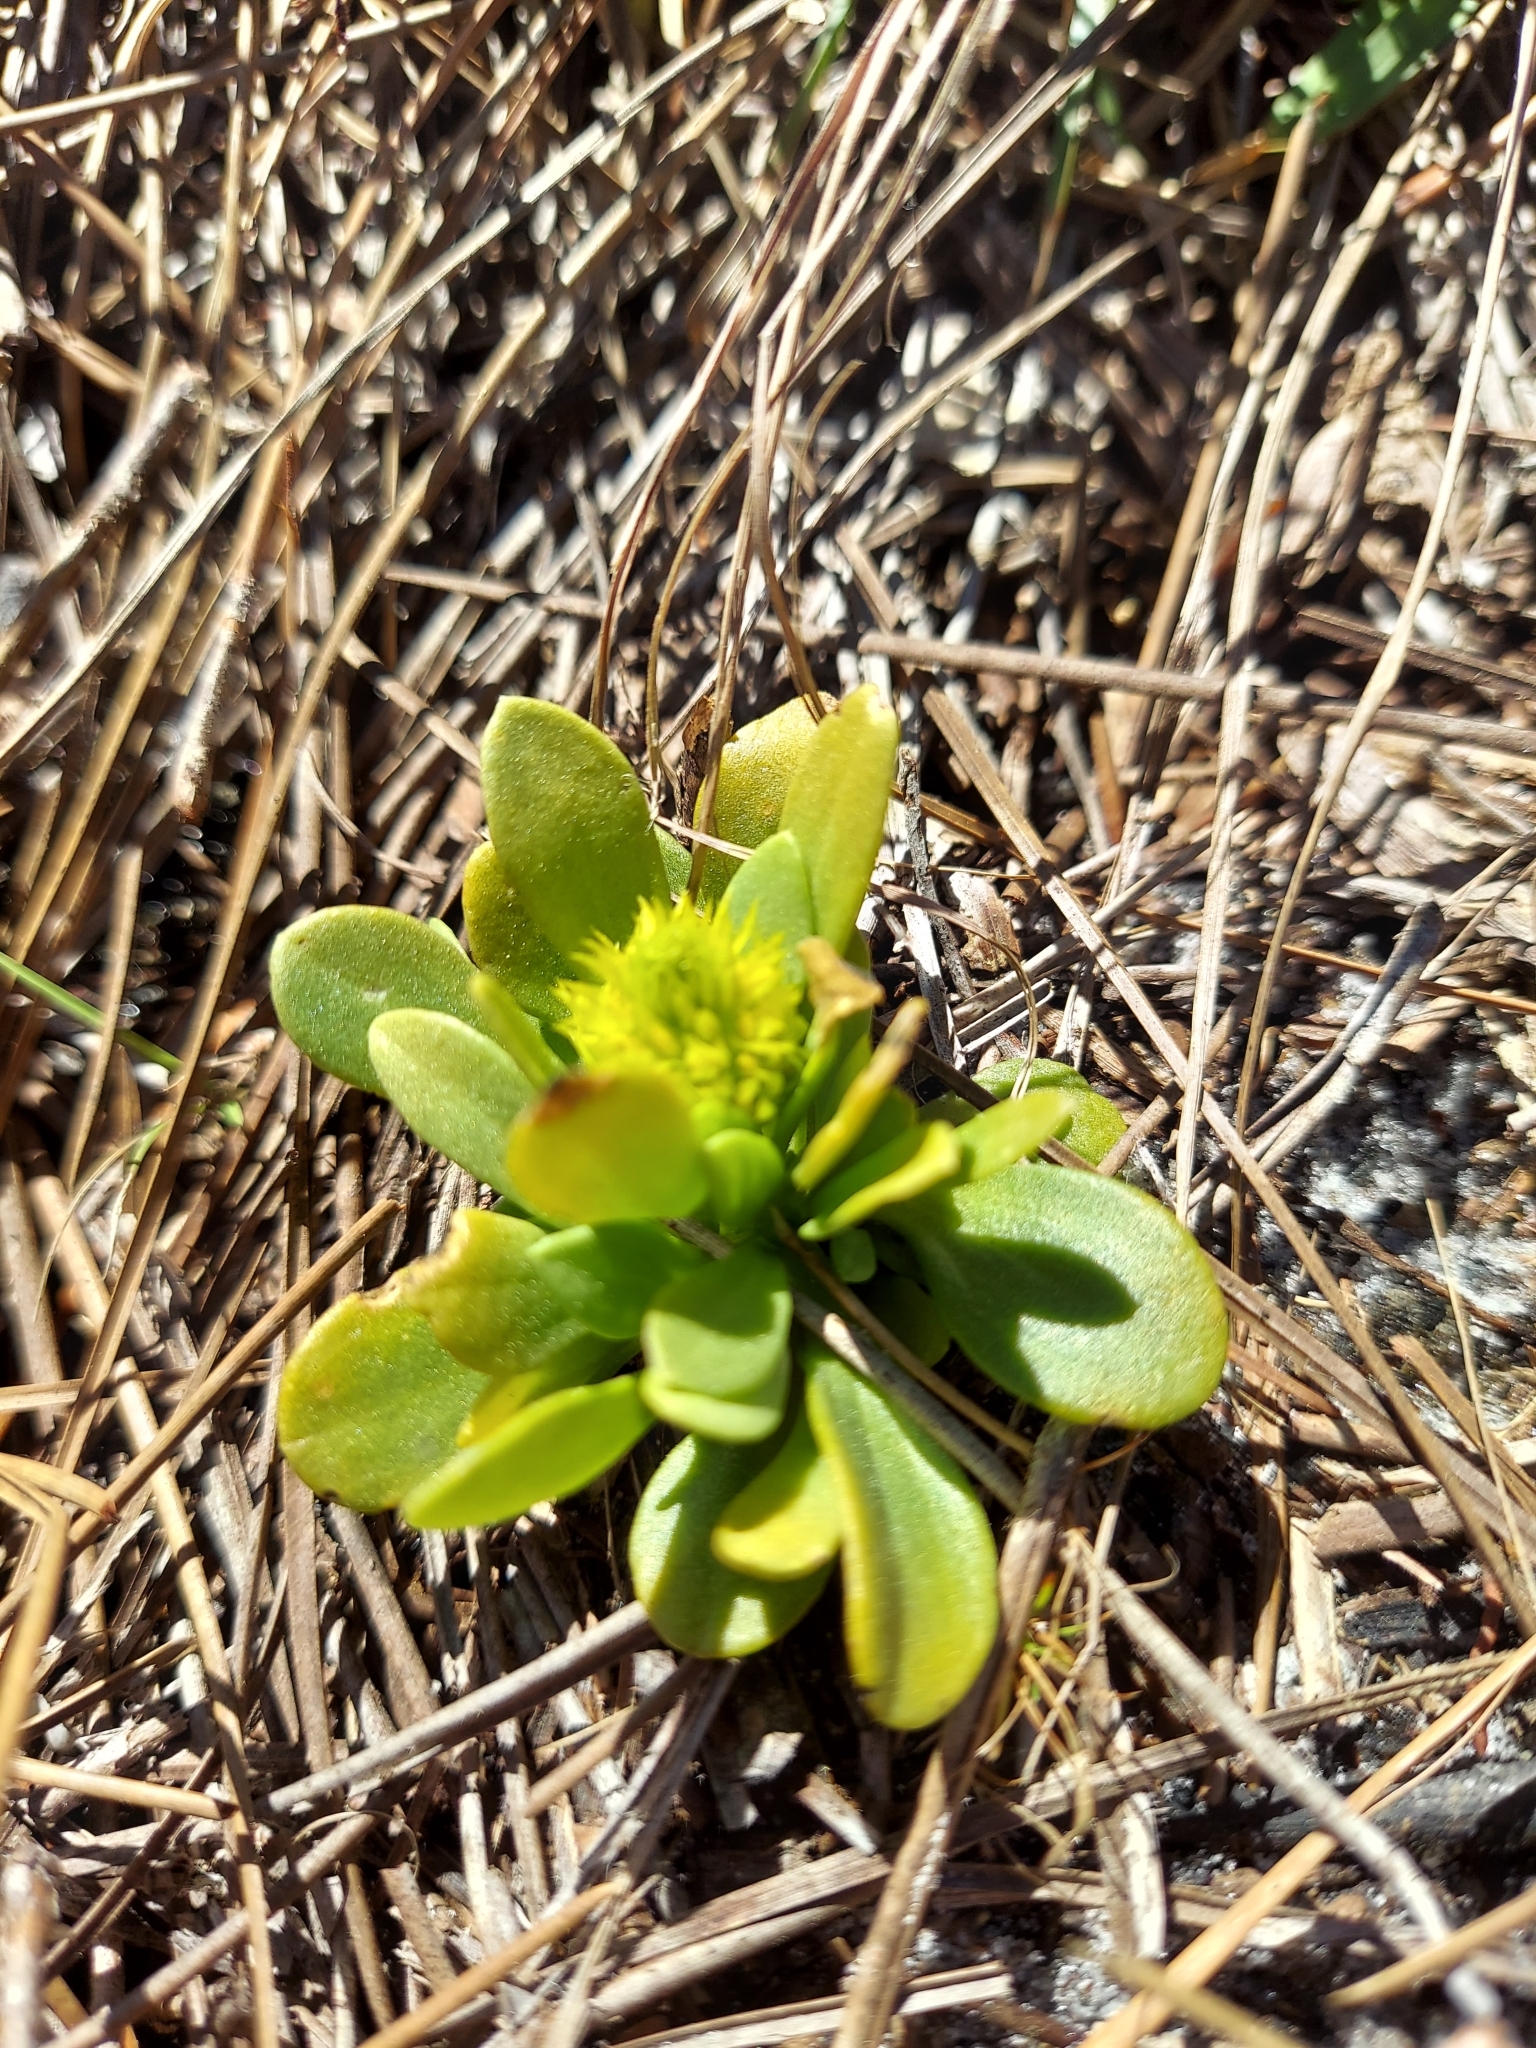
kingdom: Plantae
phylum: Tracheophyta
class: Magnoliopsida
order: Fabales
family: Polygalaceae
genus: Polygala
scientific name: Polygala nana
